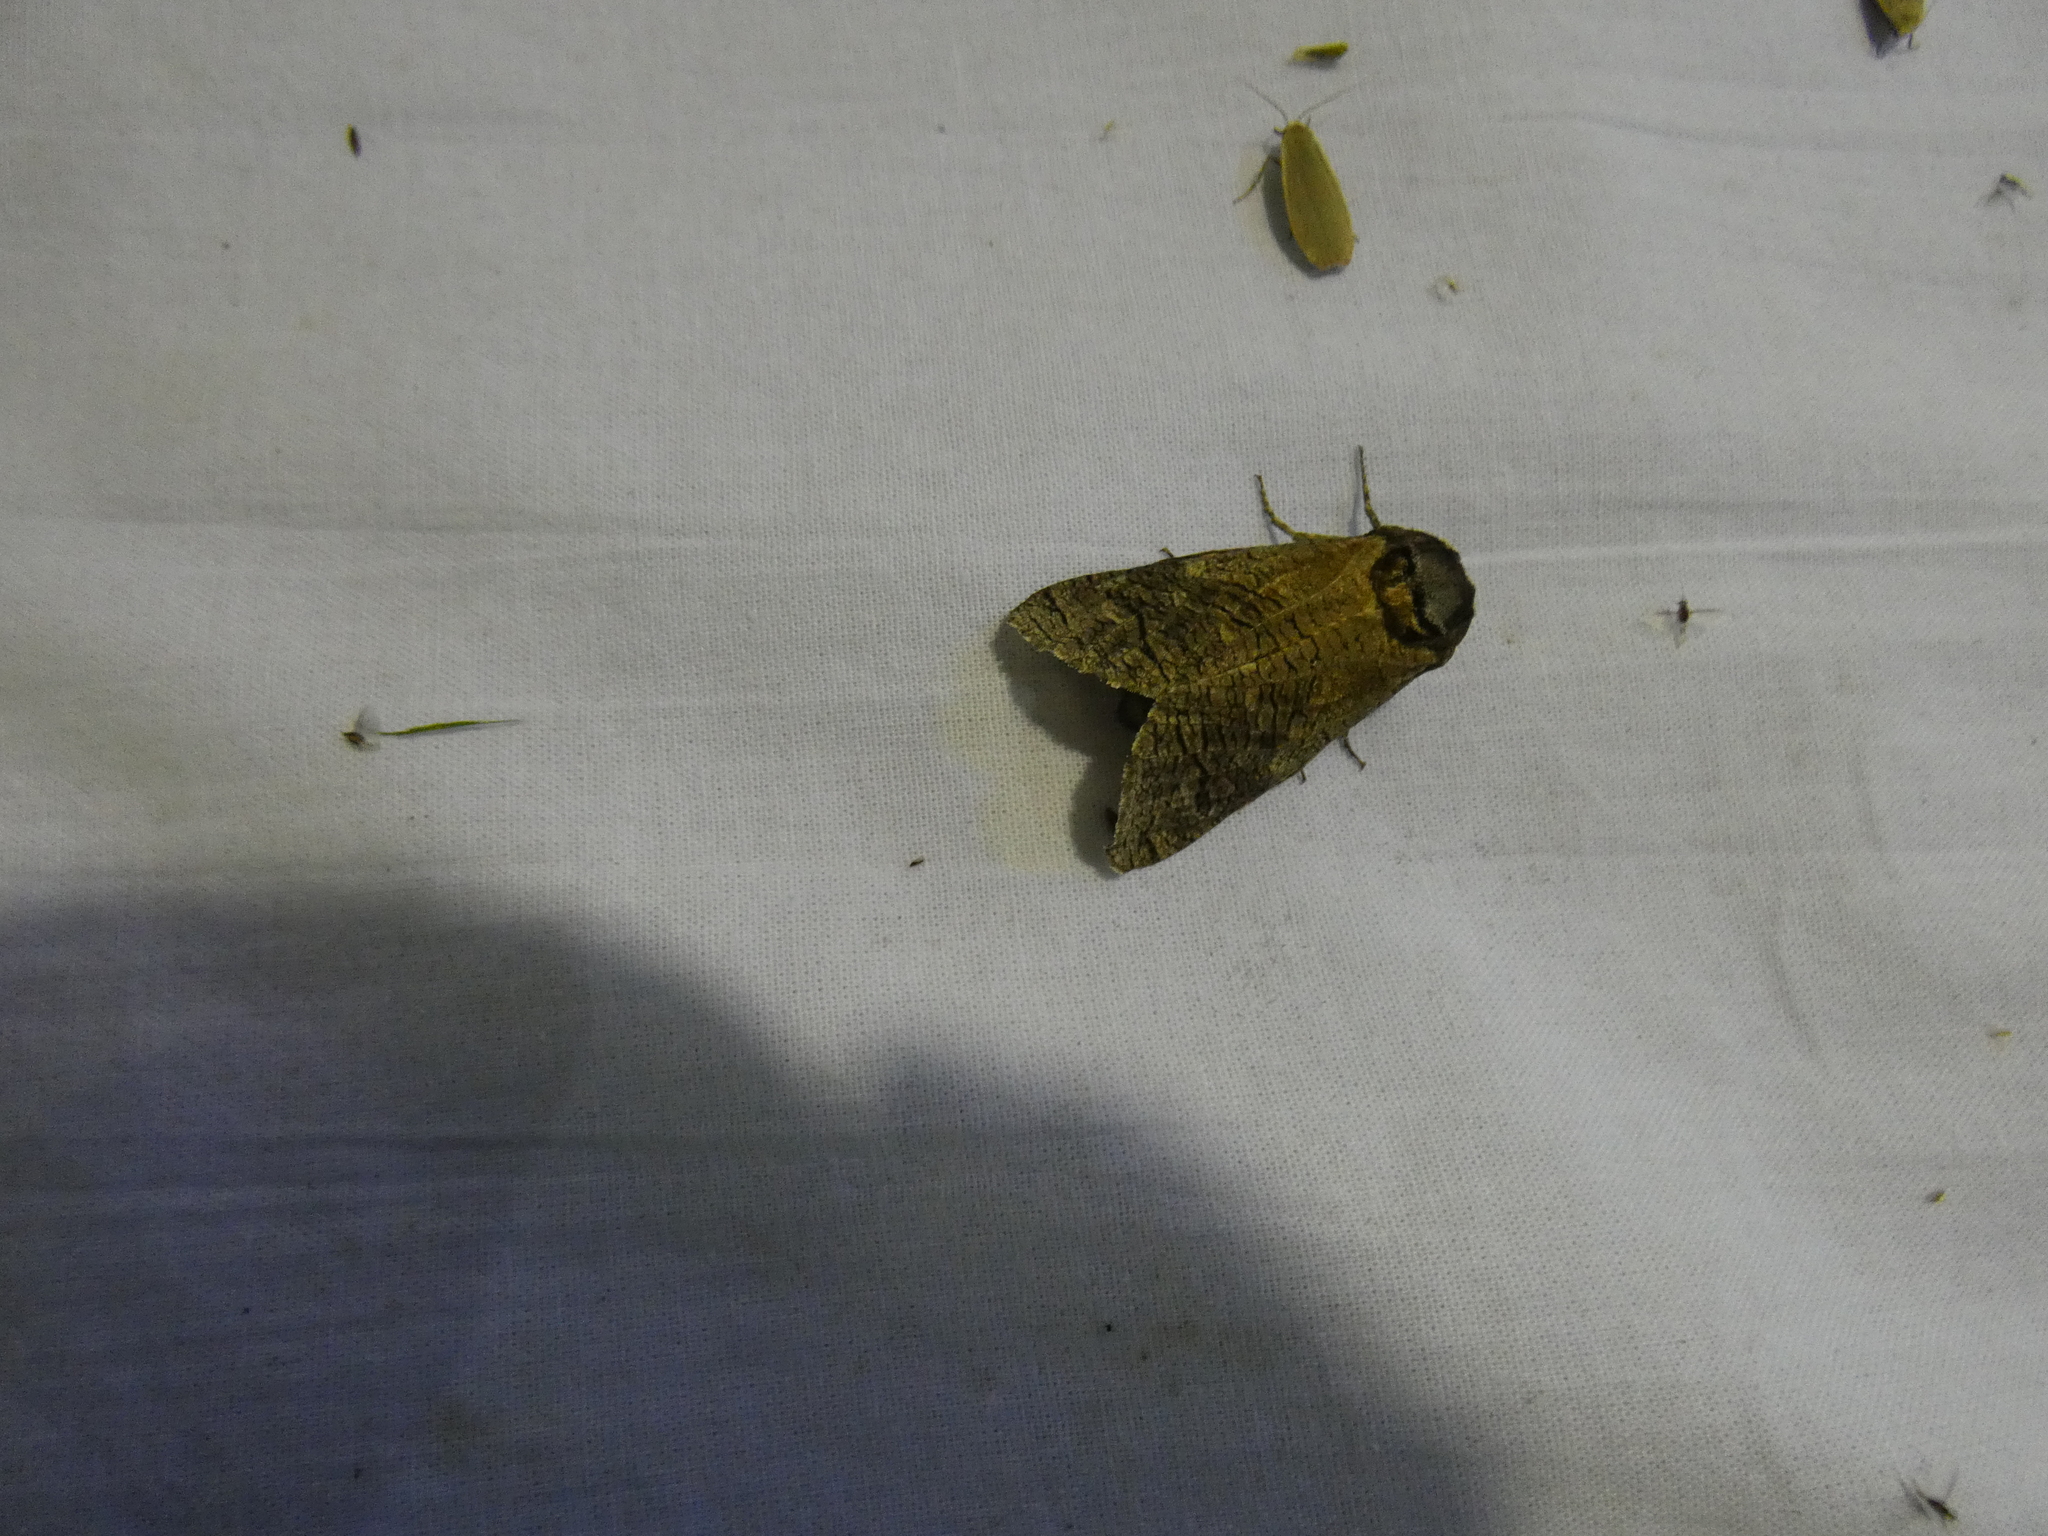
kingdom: Animalia
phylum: Arthropoda
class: Insecta
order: Lepidoptera
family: Cossidae
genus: Cossus
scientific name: Cossus cossus
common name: Goat moth
